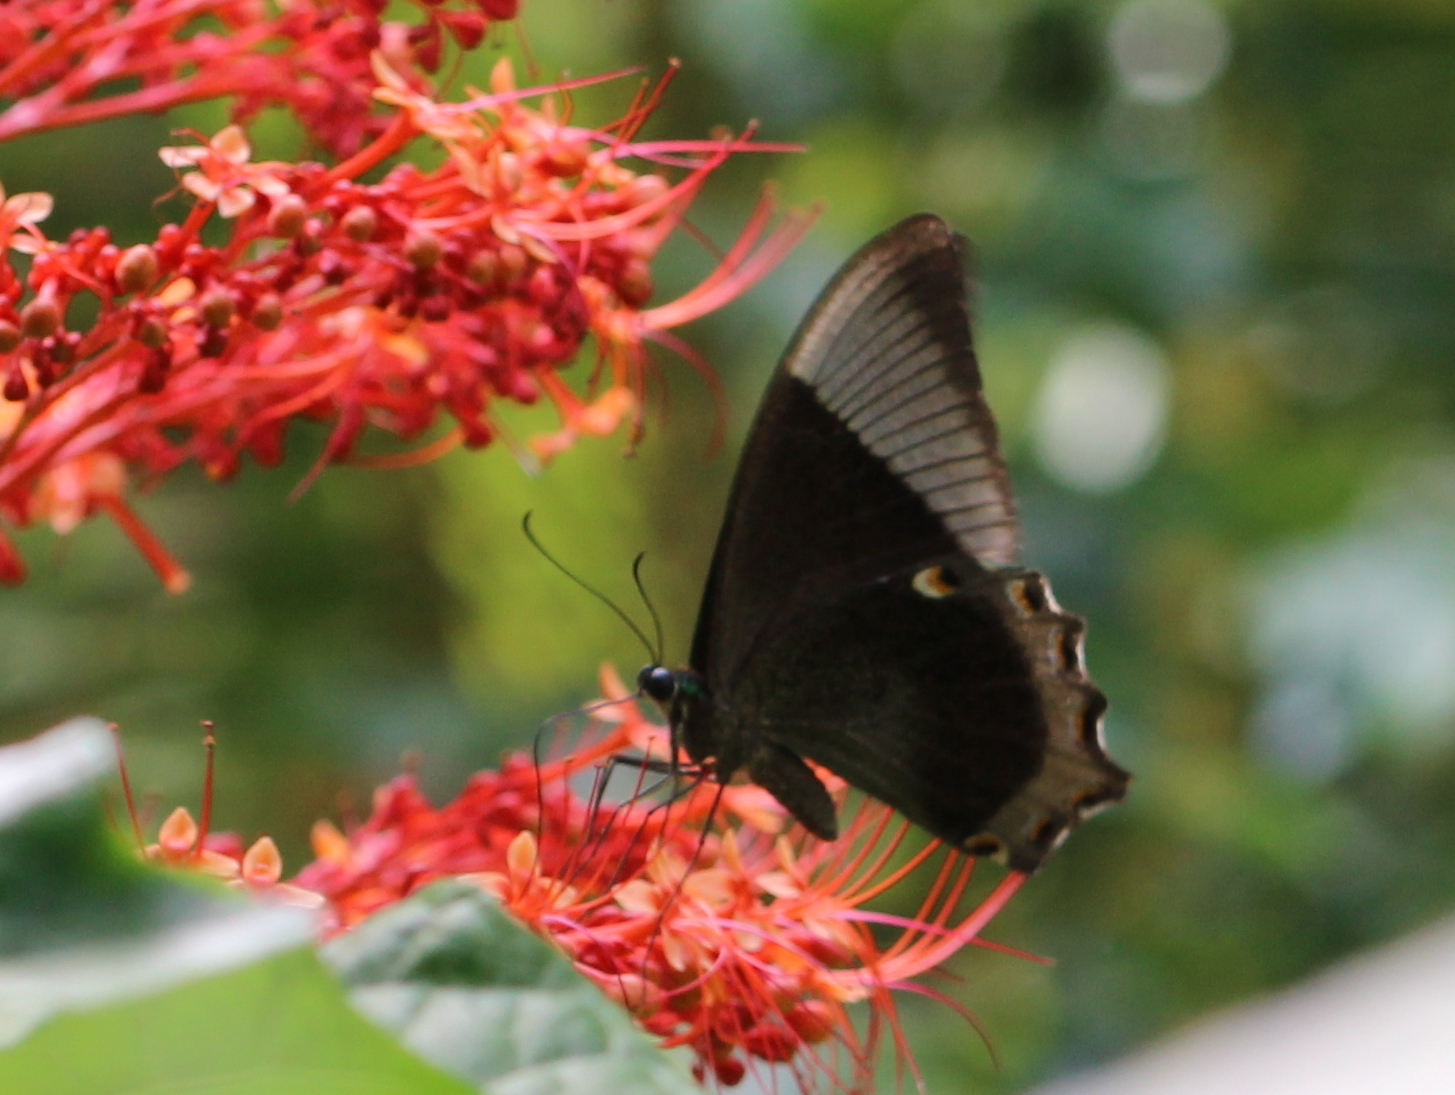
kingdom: Animalia
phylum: Arthropoda
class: Insecta
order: Lepidoptera
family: Papilionidae
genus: Papilio
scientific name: Papilio buddha
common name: Malabar banded peacock
